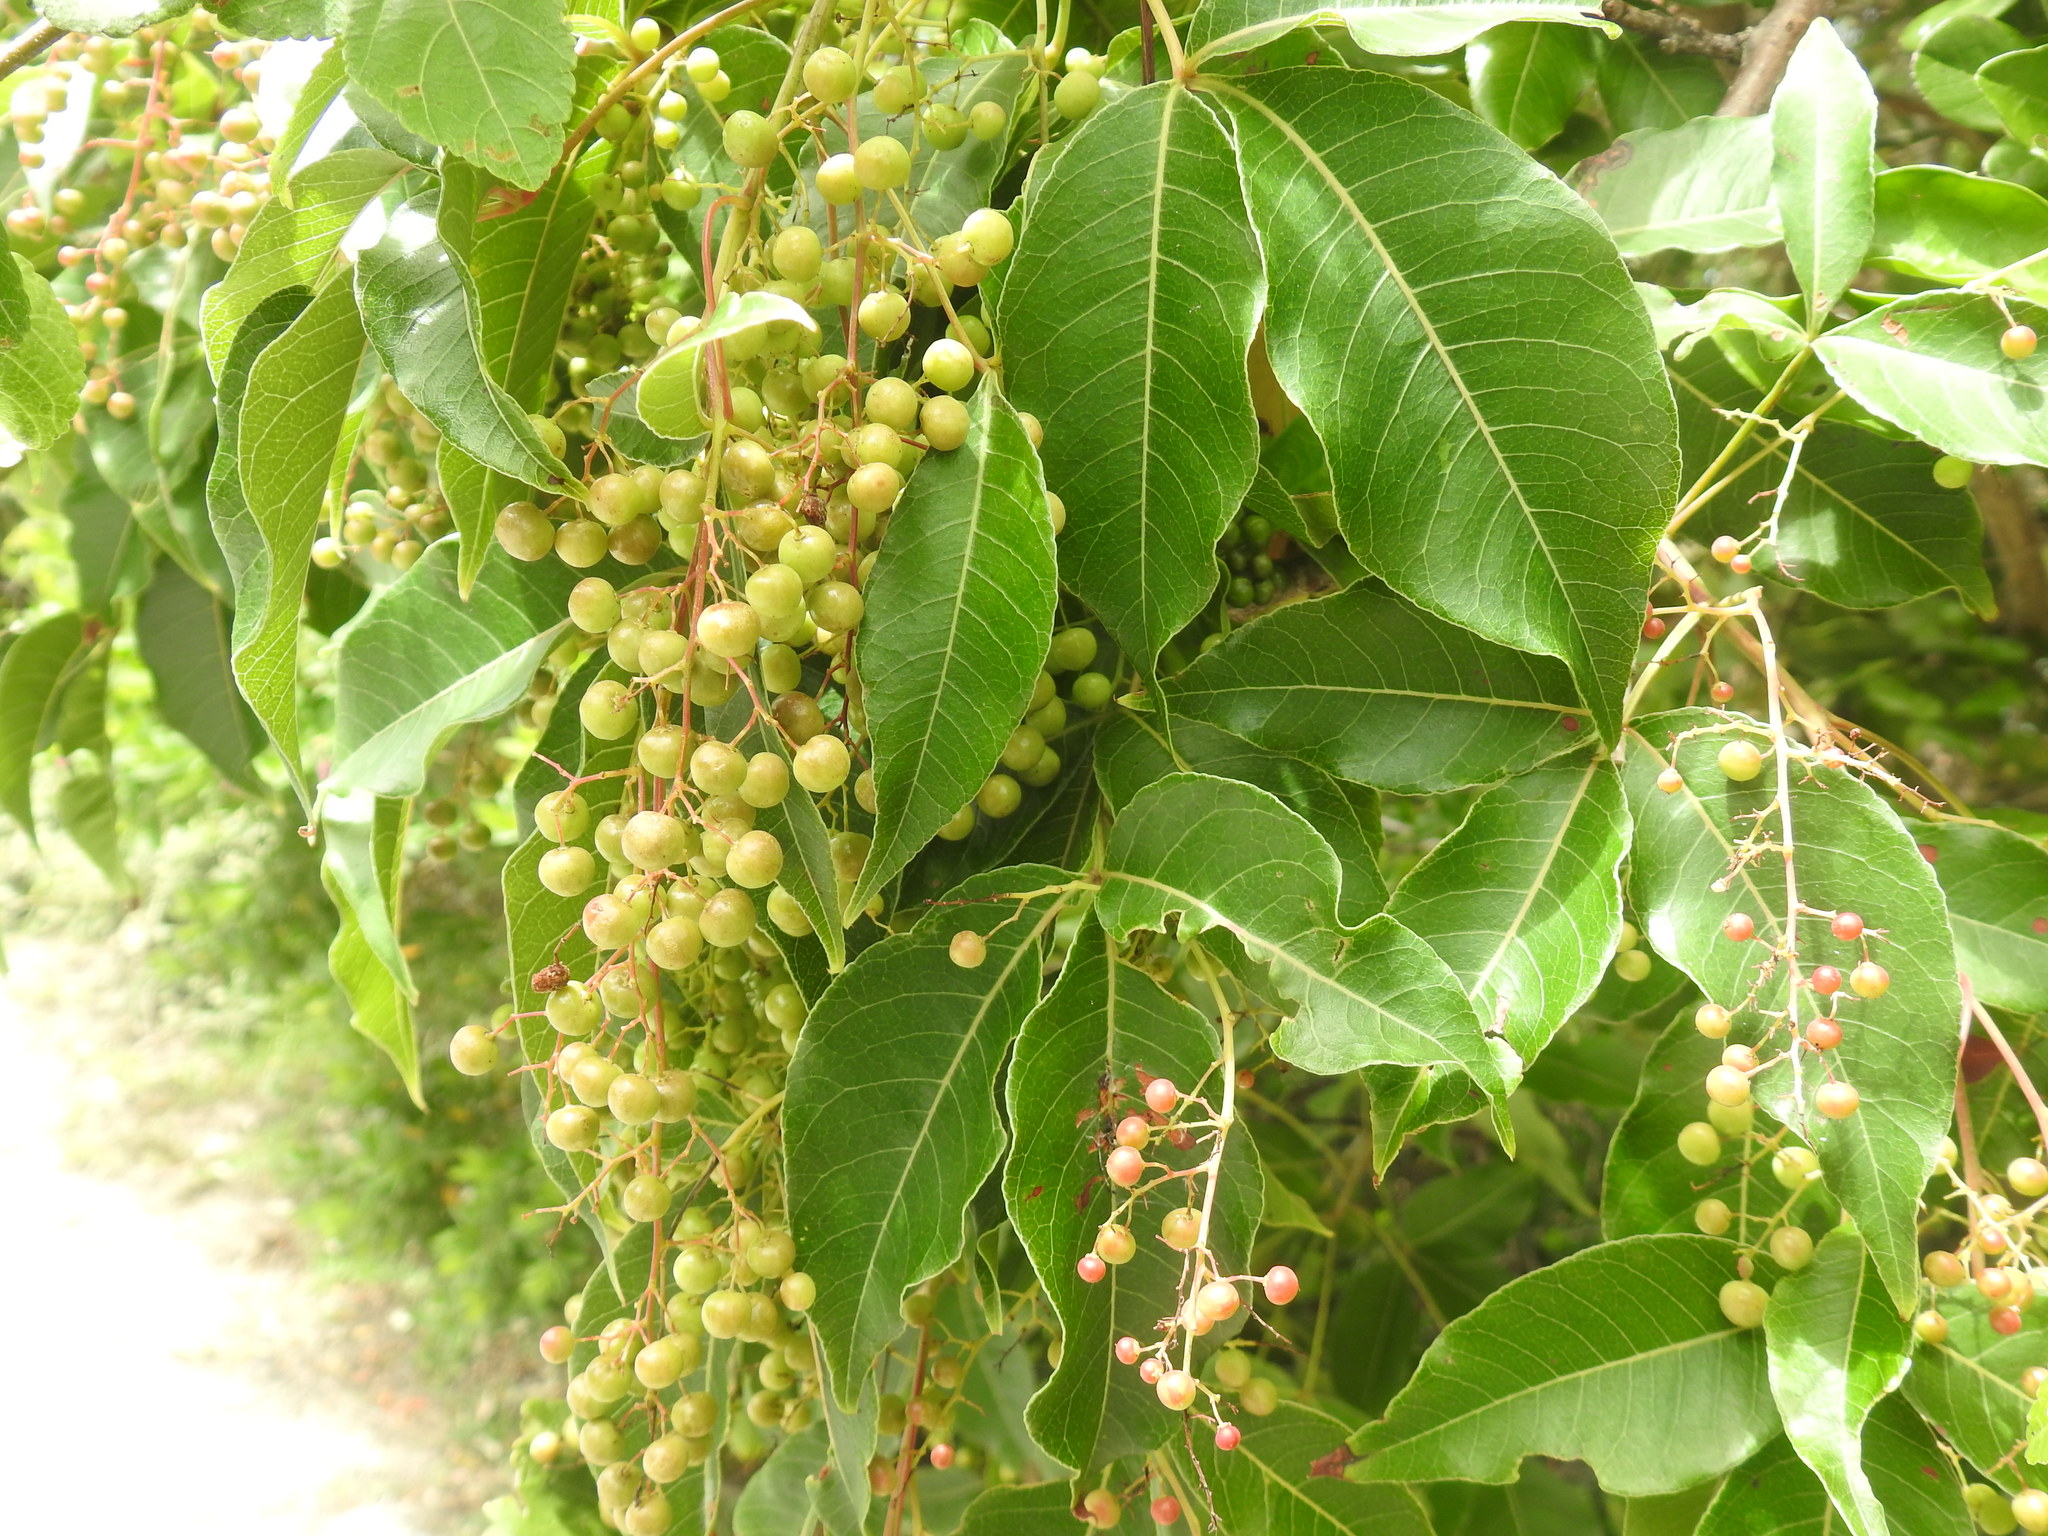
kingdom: Plantae
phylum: Tracheophyta
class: Magnoliopsida
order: Sapindales
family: Anacardiaceae
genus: Searsia
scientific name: Searsia chirindensis
